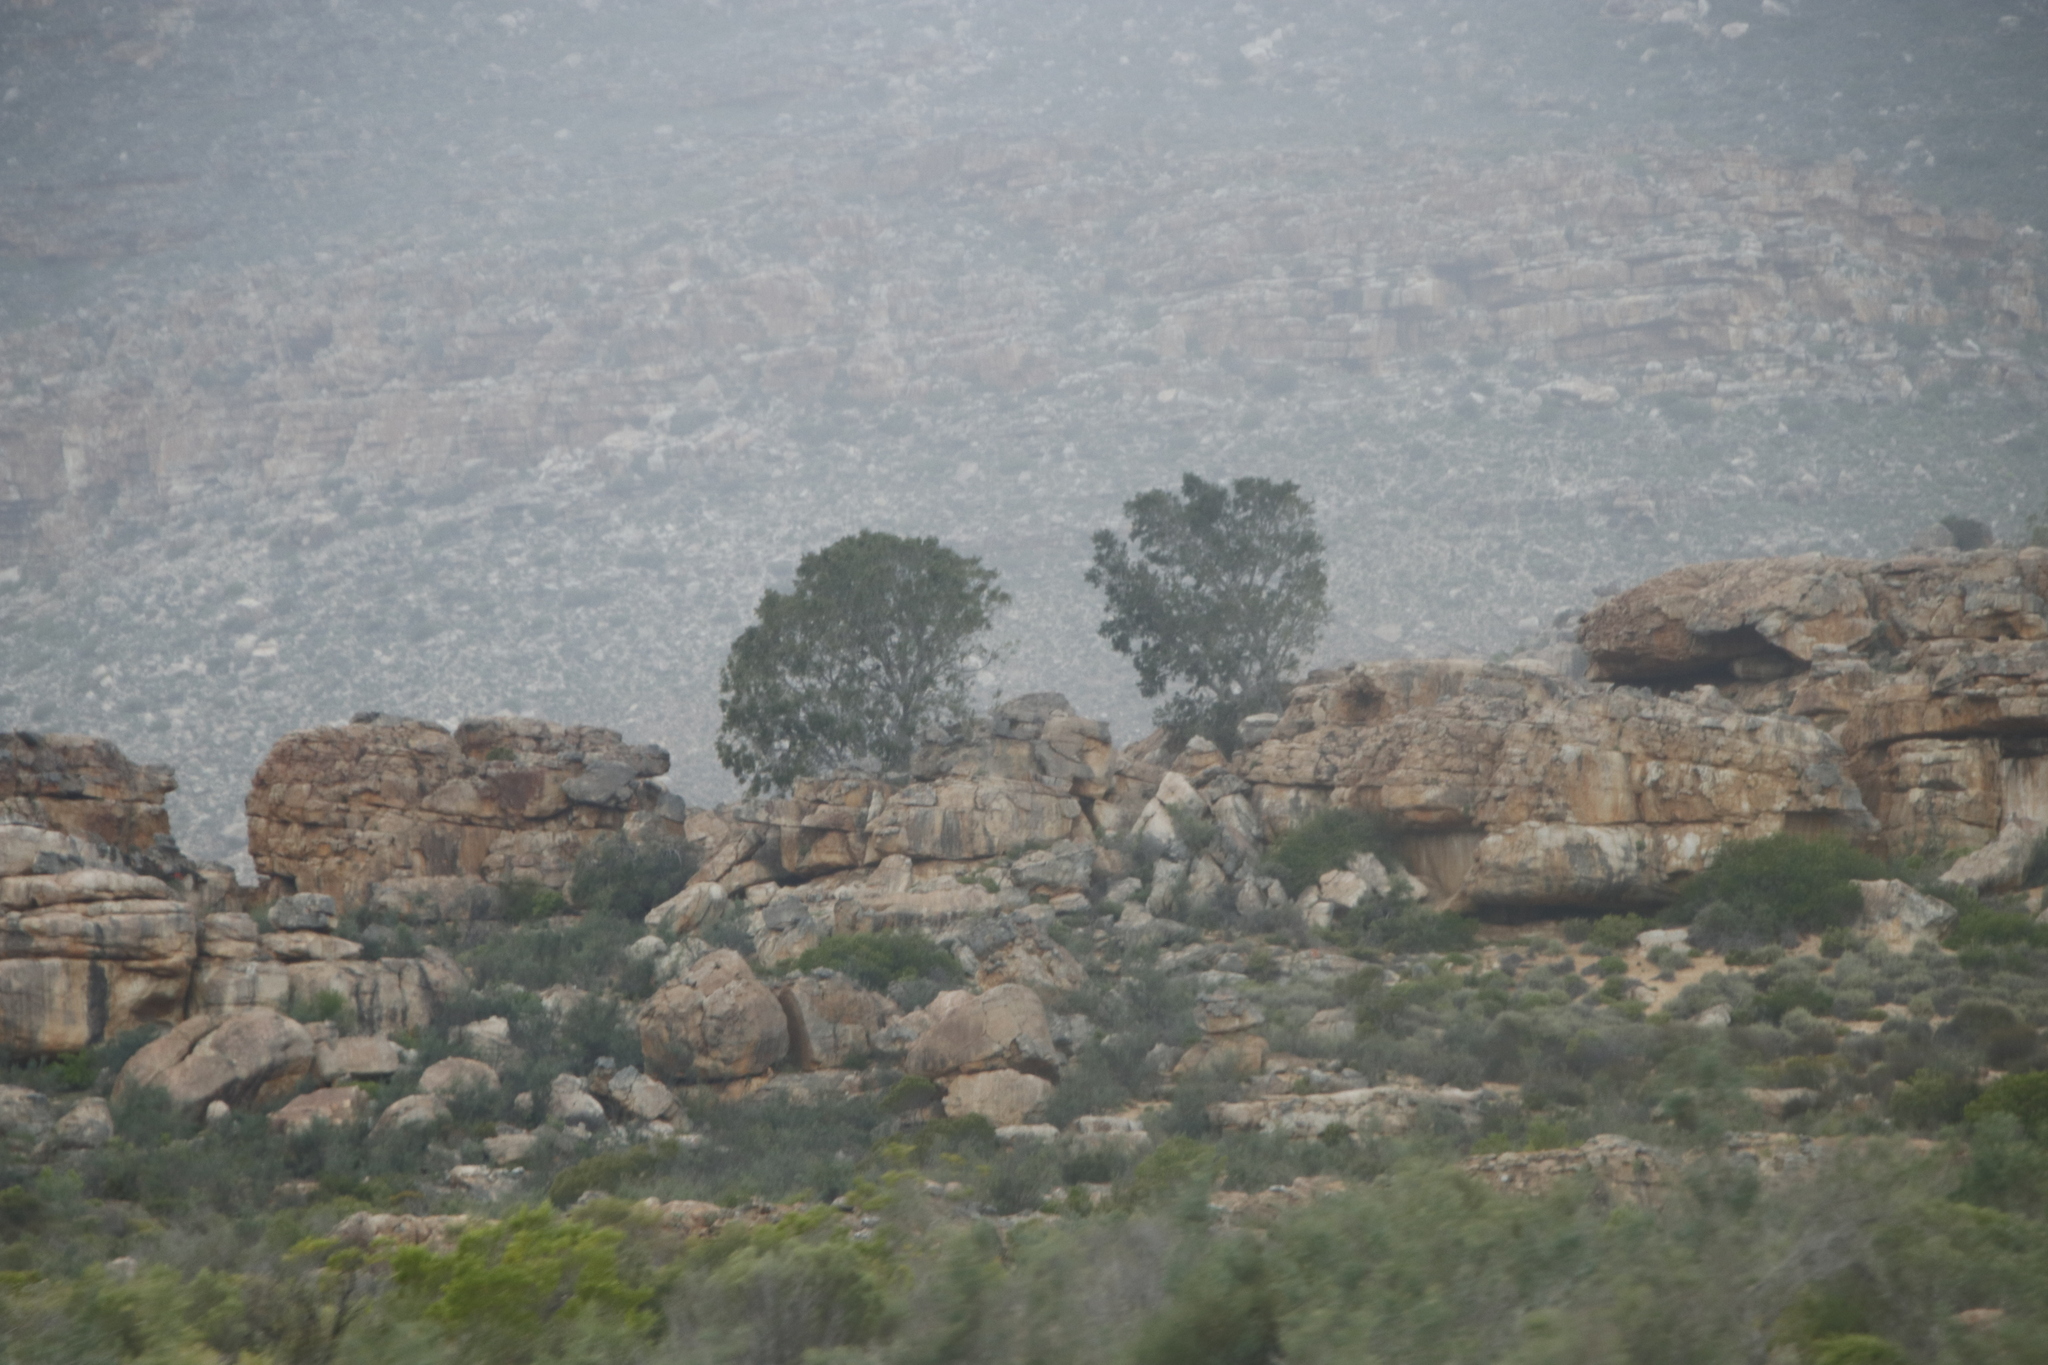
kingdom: Plantae
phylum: Tracheophyta
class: Magnoliopsida
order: Rosales
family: Moraceae
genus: Ficus
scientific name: Ficus cordata
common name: Namaqua rock fig
